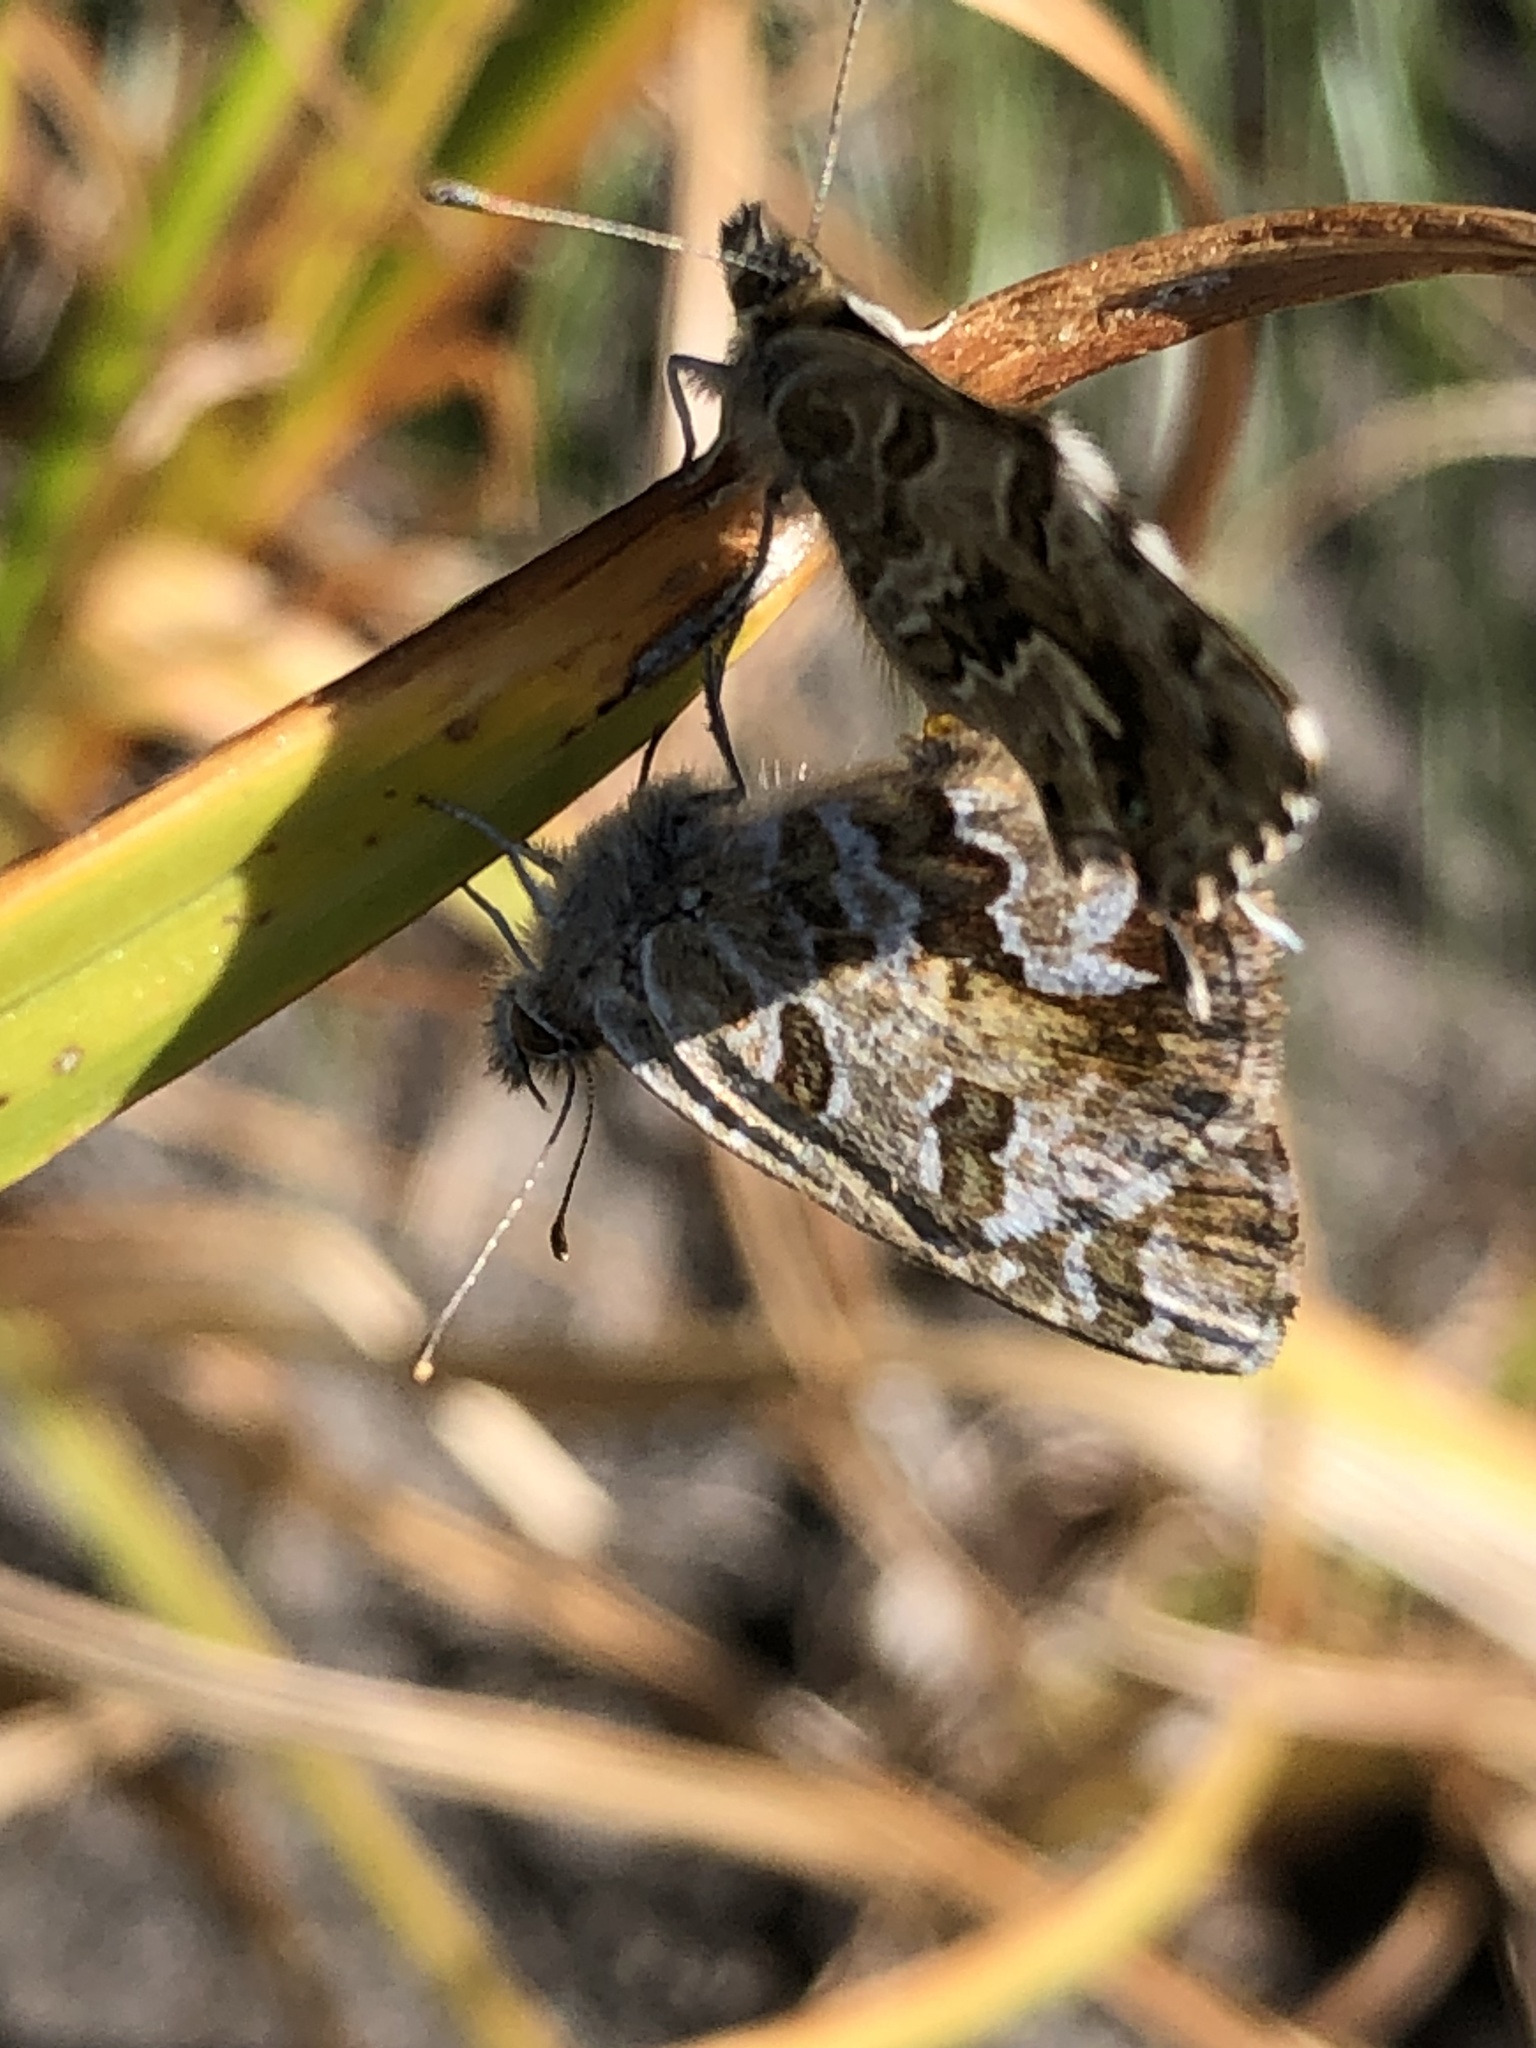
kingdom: Animalia
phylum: Arthropoda
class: Insecta
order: Lepidoptera
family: Lycaenidae
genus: Cacyreus
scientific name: Cacyreus fracta
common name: Water bronze
